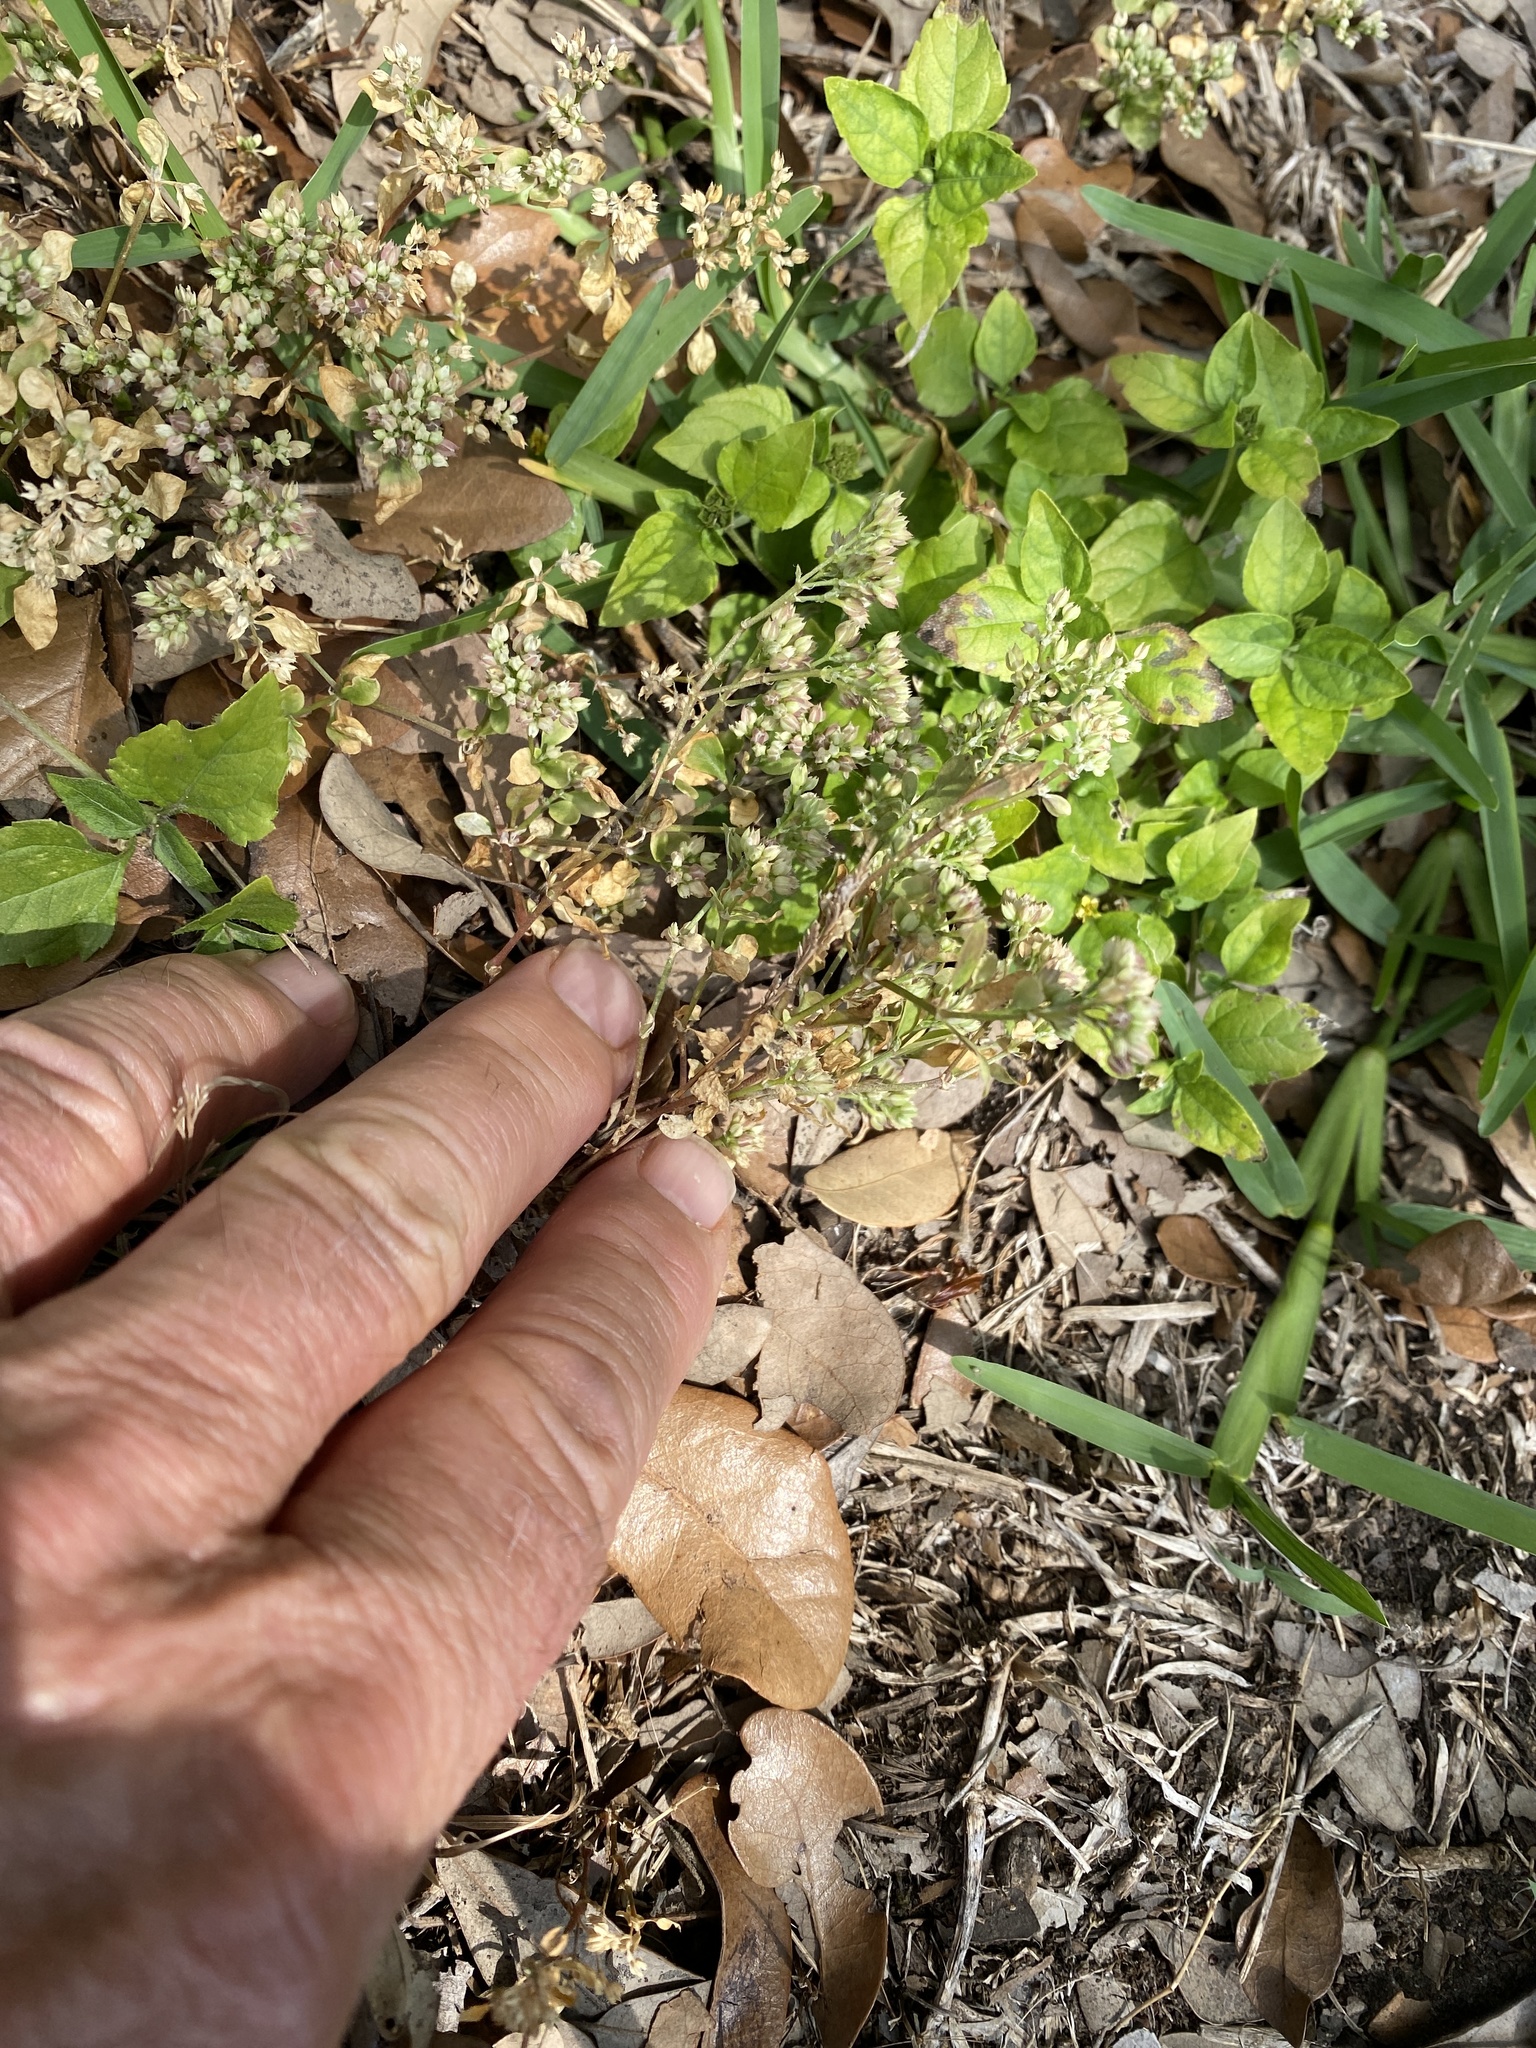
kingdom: Plantae
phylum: Tracheophyta
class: Magnoliopsida
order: Caryophyllales
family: Caryophyllaceae
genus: Polycarpon
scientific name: Polycarpon tetraphyllum
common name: Four-leaved all-seed
